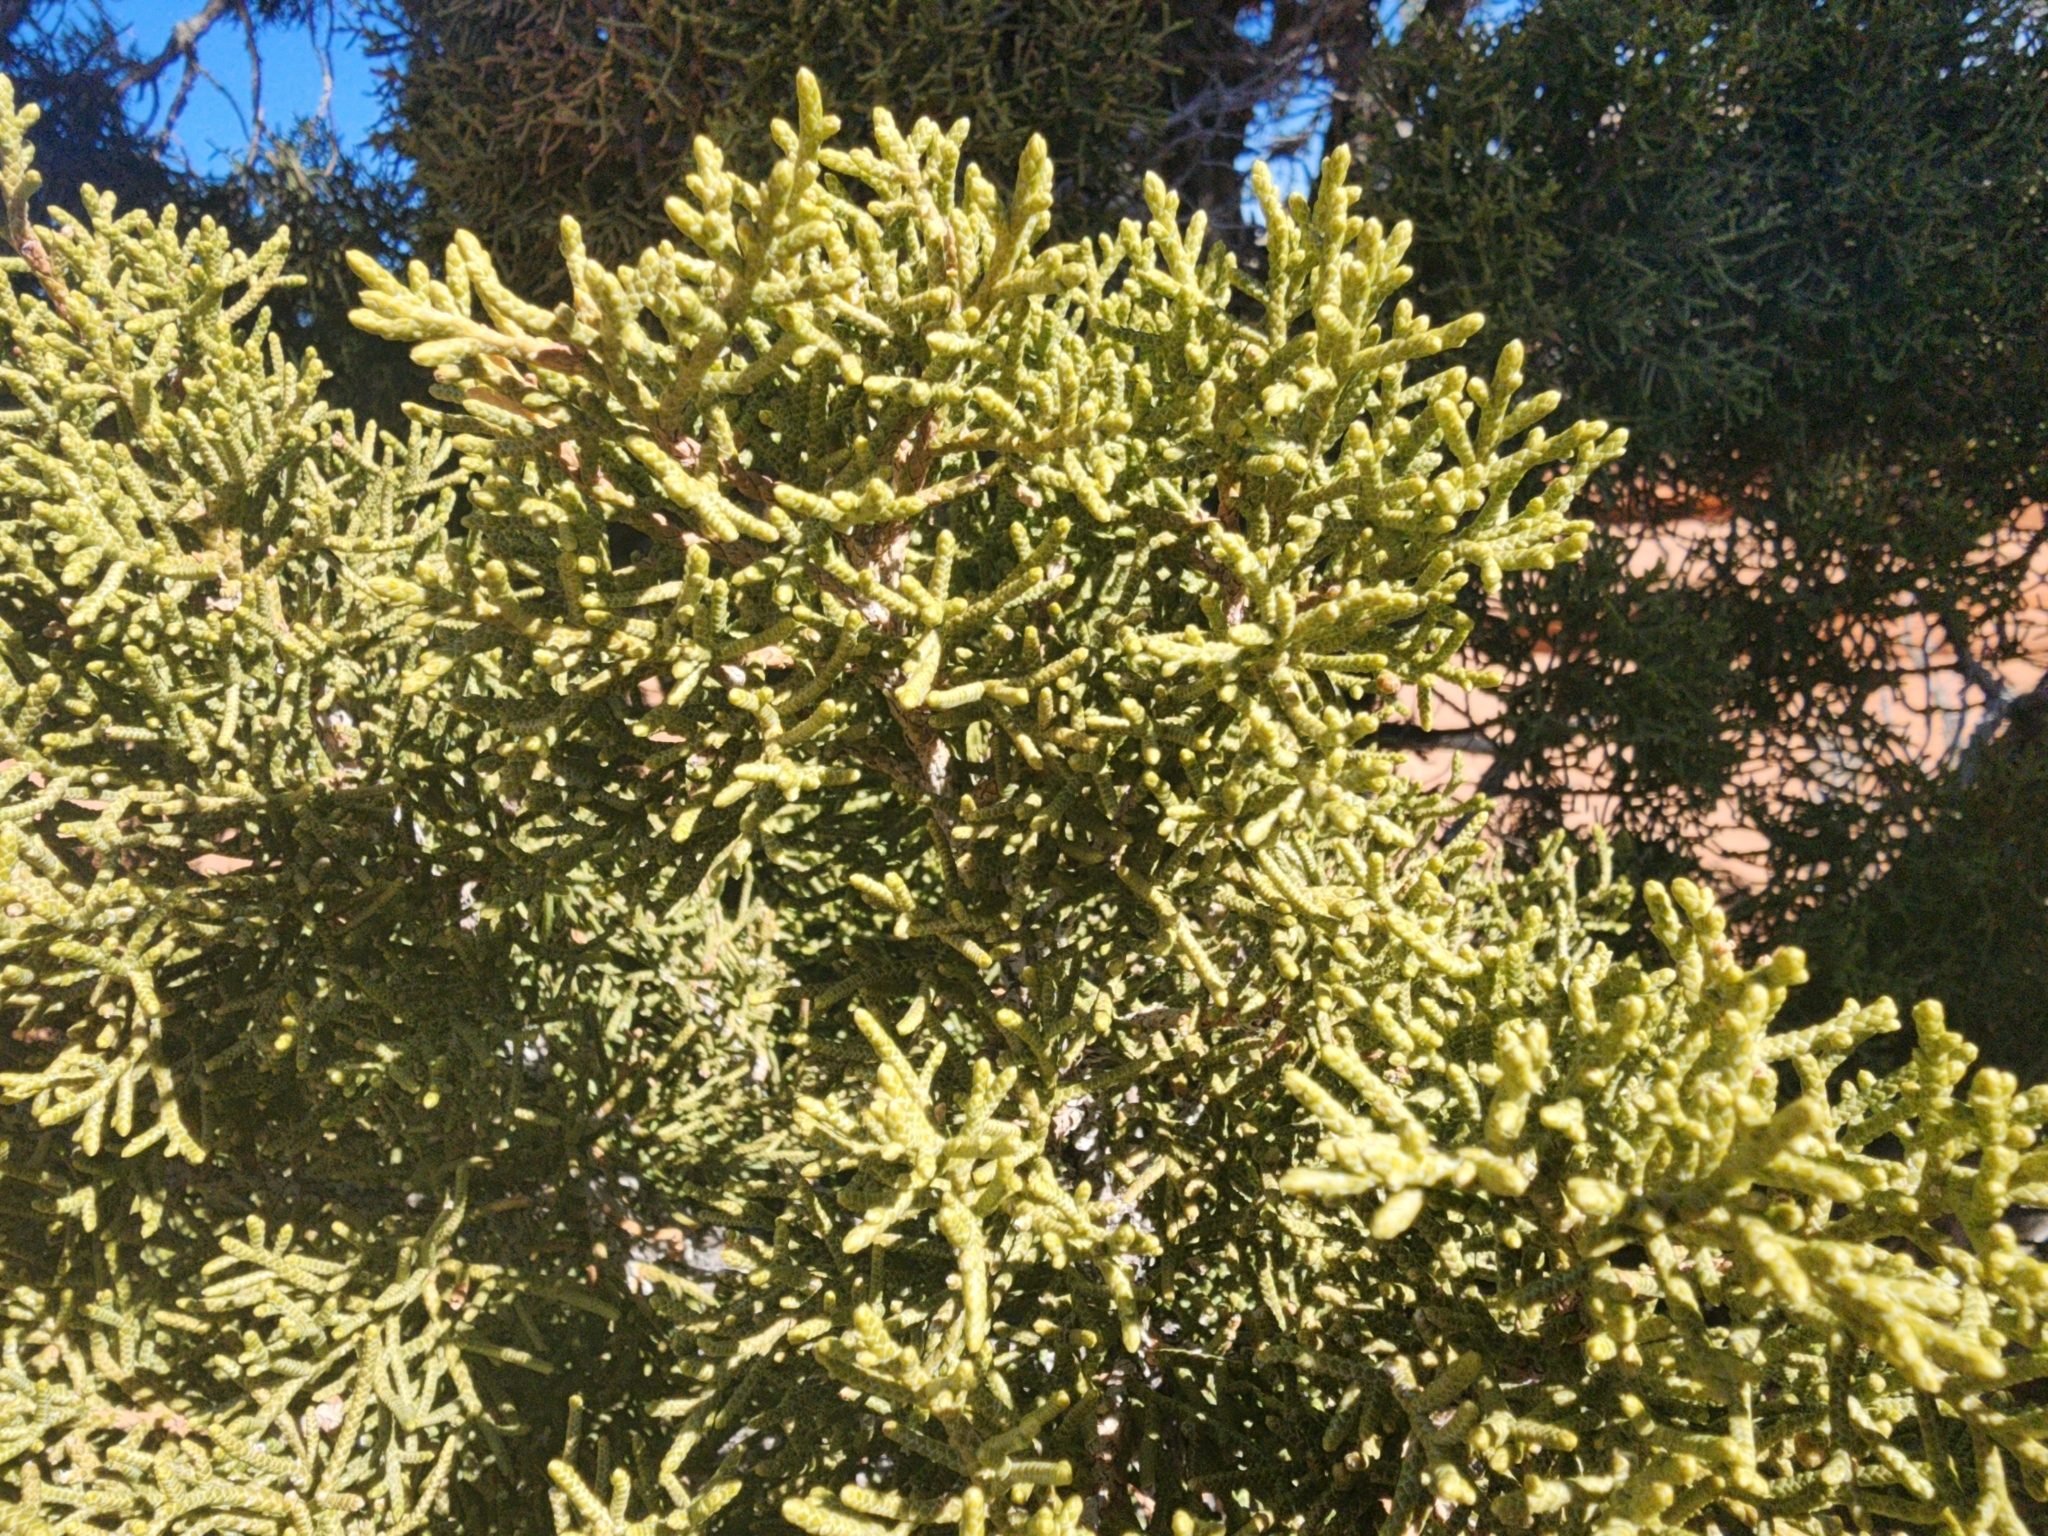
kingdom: Plantae
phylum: Tracheophyta
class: Pinopsida
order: Pinales
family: Cupressaceae
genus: Juniperus
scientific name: Juniperus osteosperma
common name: Utah juniper
